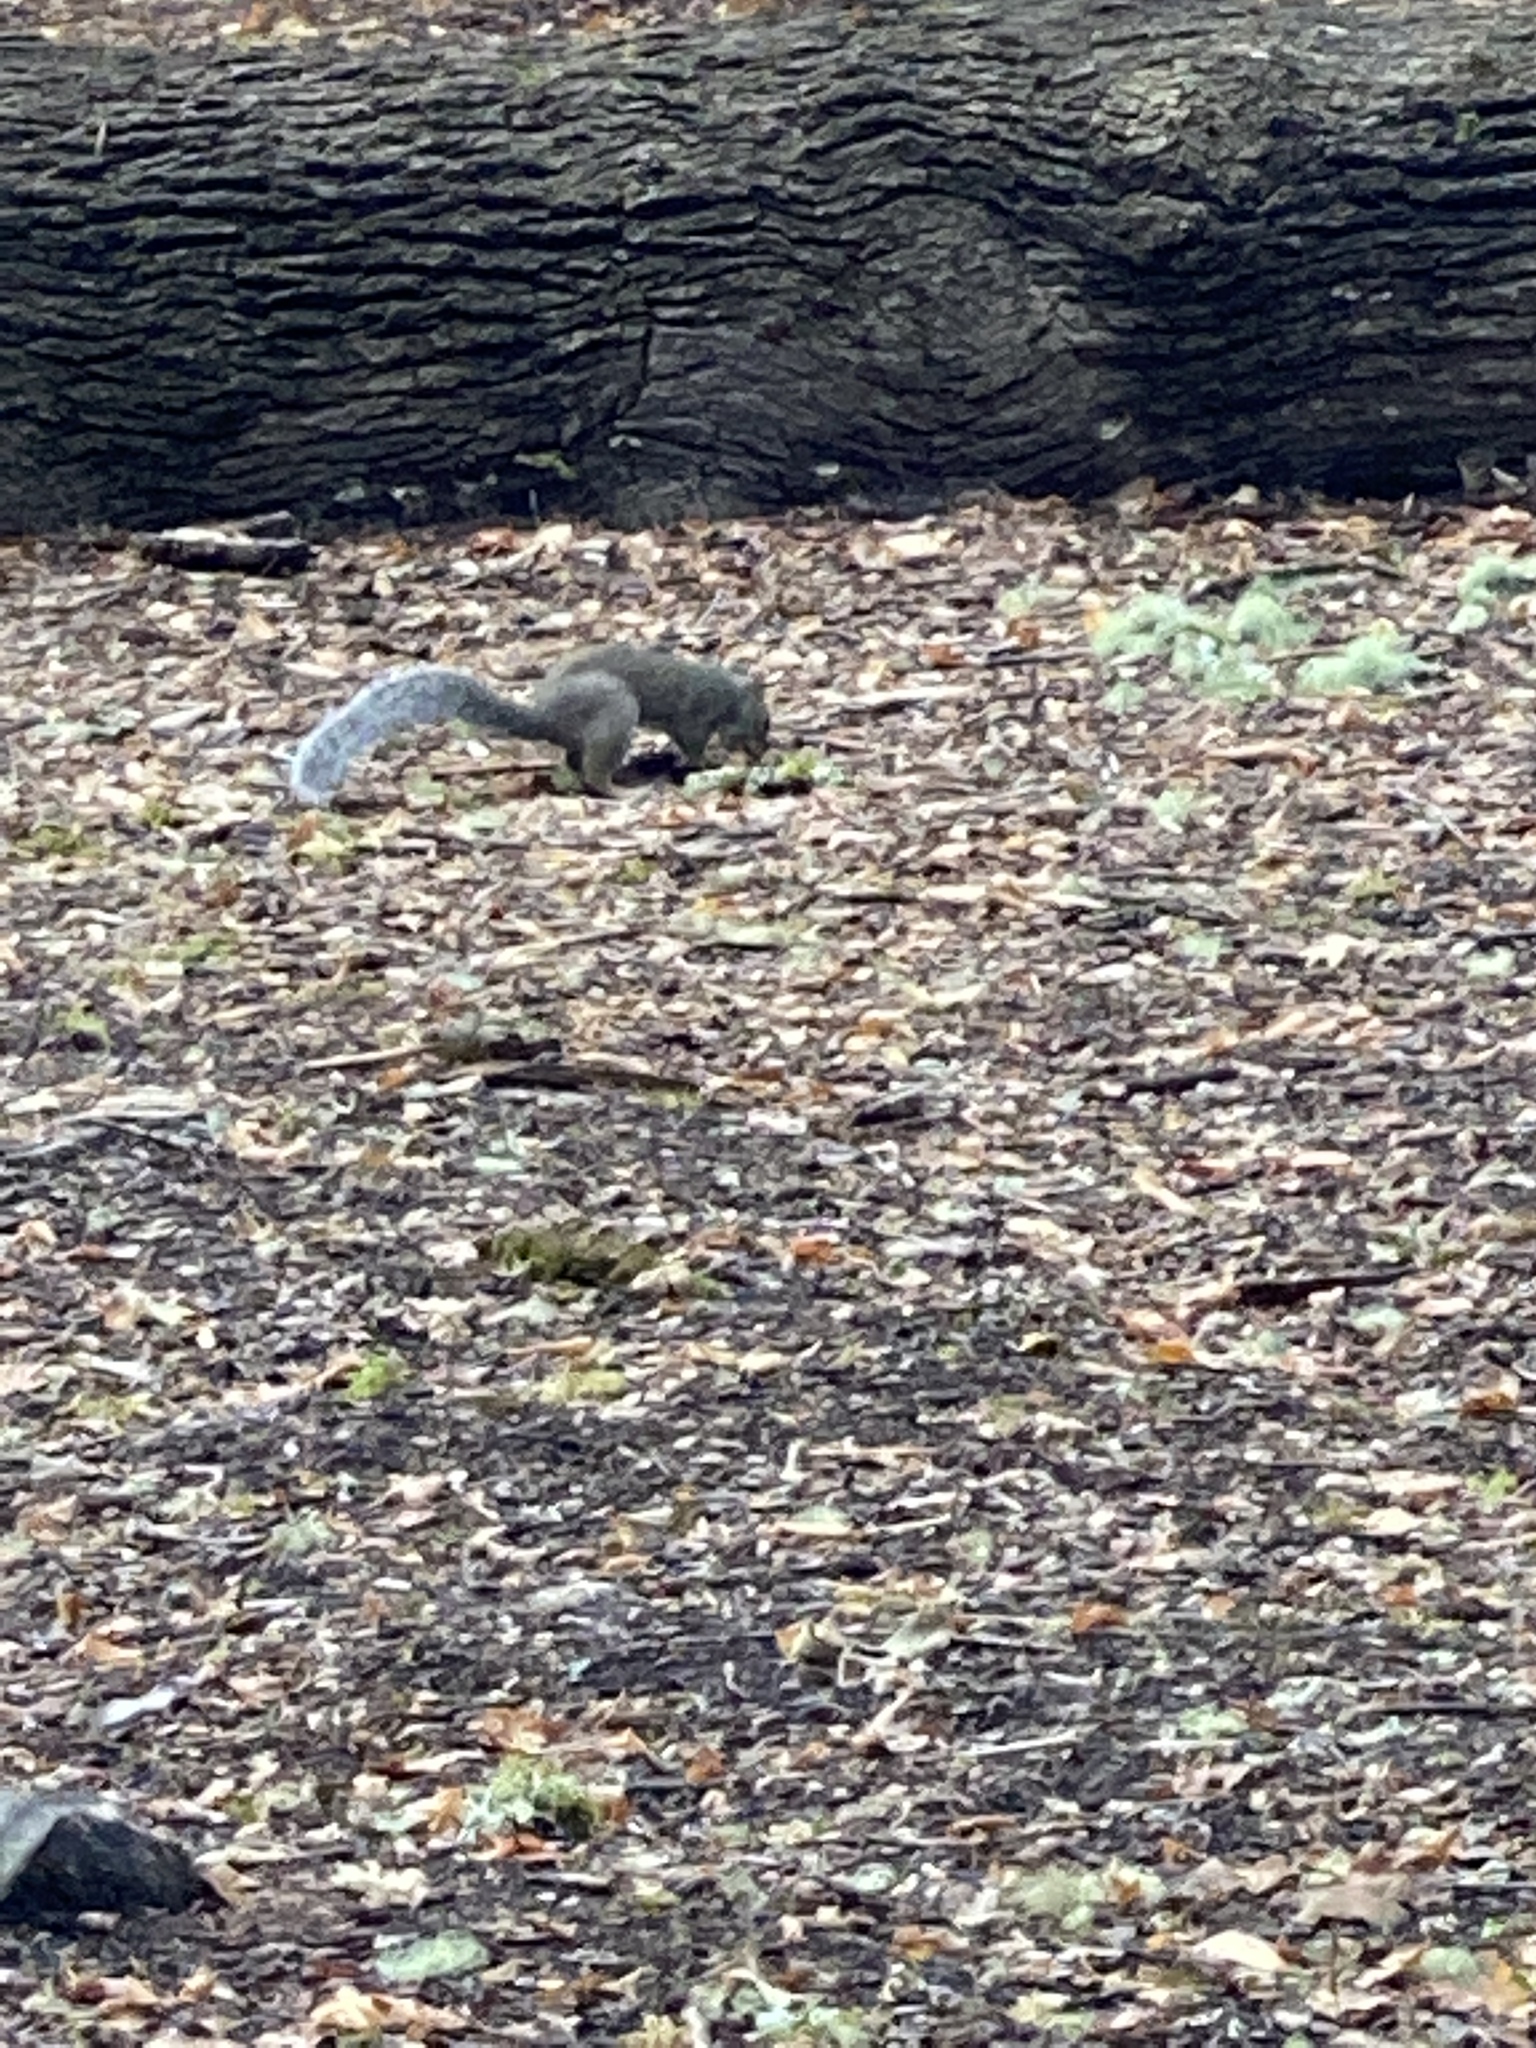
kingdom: Animalia
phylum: Chordata
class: Mammalia
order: Rodentia
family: Sciuridae
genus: Sciurus
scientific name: Sciurus carolinensis
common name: Eastern gray squirrel
